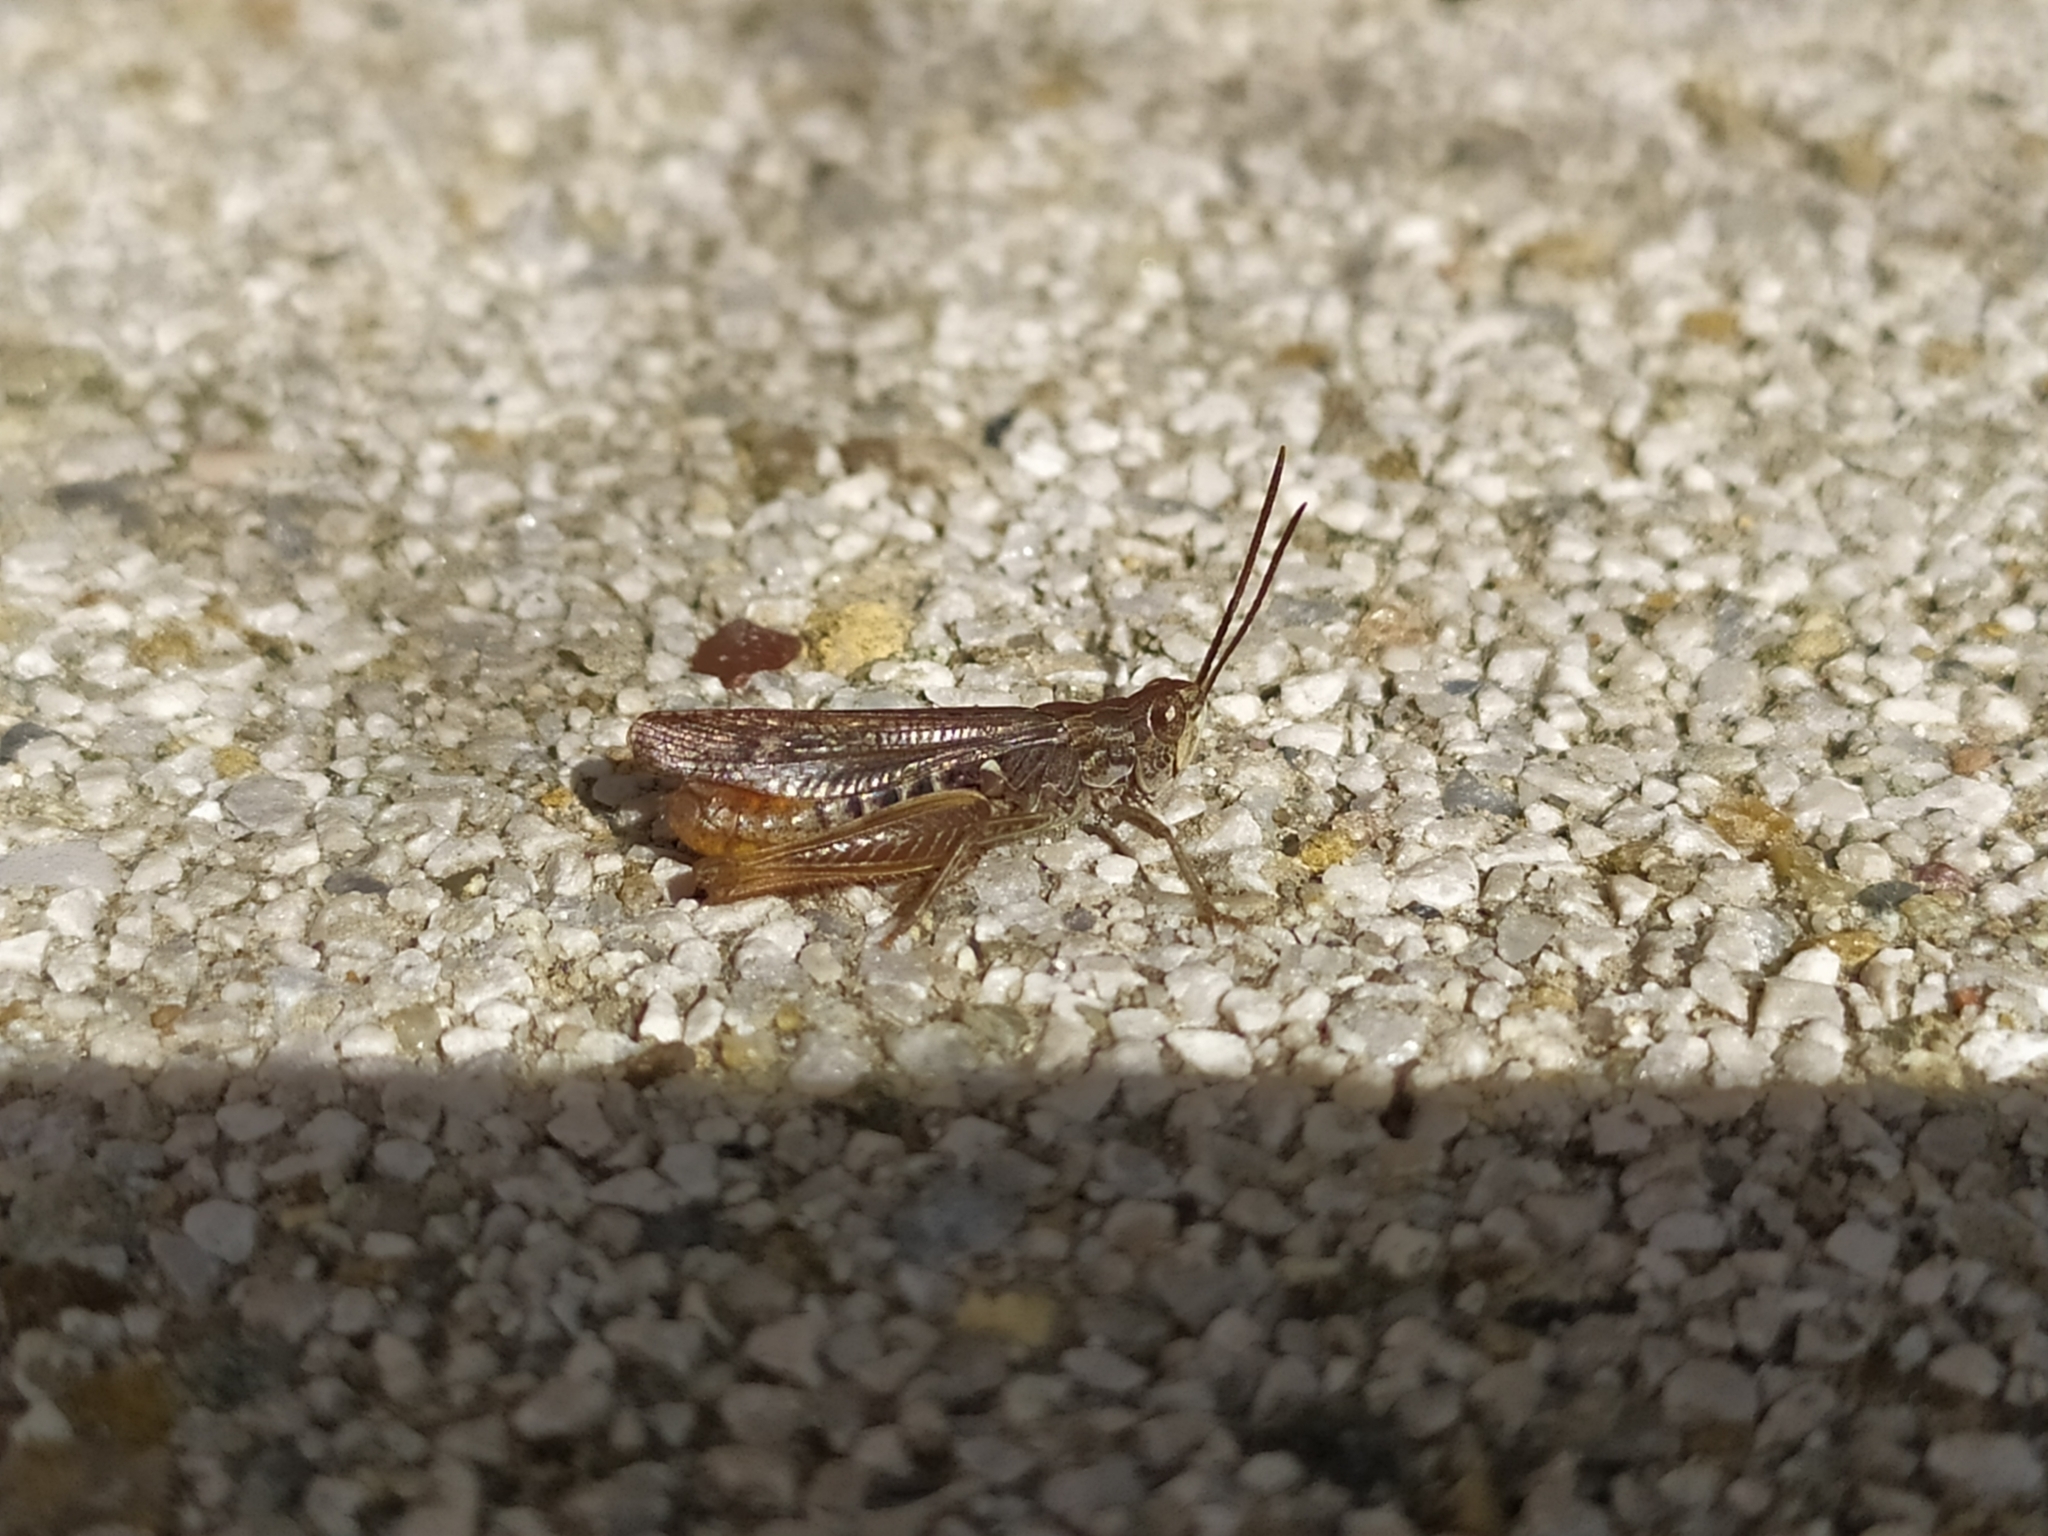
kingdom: Animalia
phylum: Arthropoda
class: Insecta
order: Orthoptera
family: Acrididae
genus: Chorthippus
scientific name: Chorthippus biguttulus
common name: Bow-winged grasshopper
